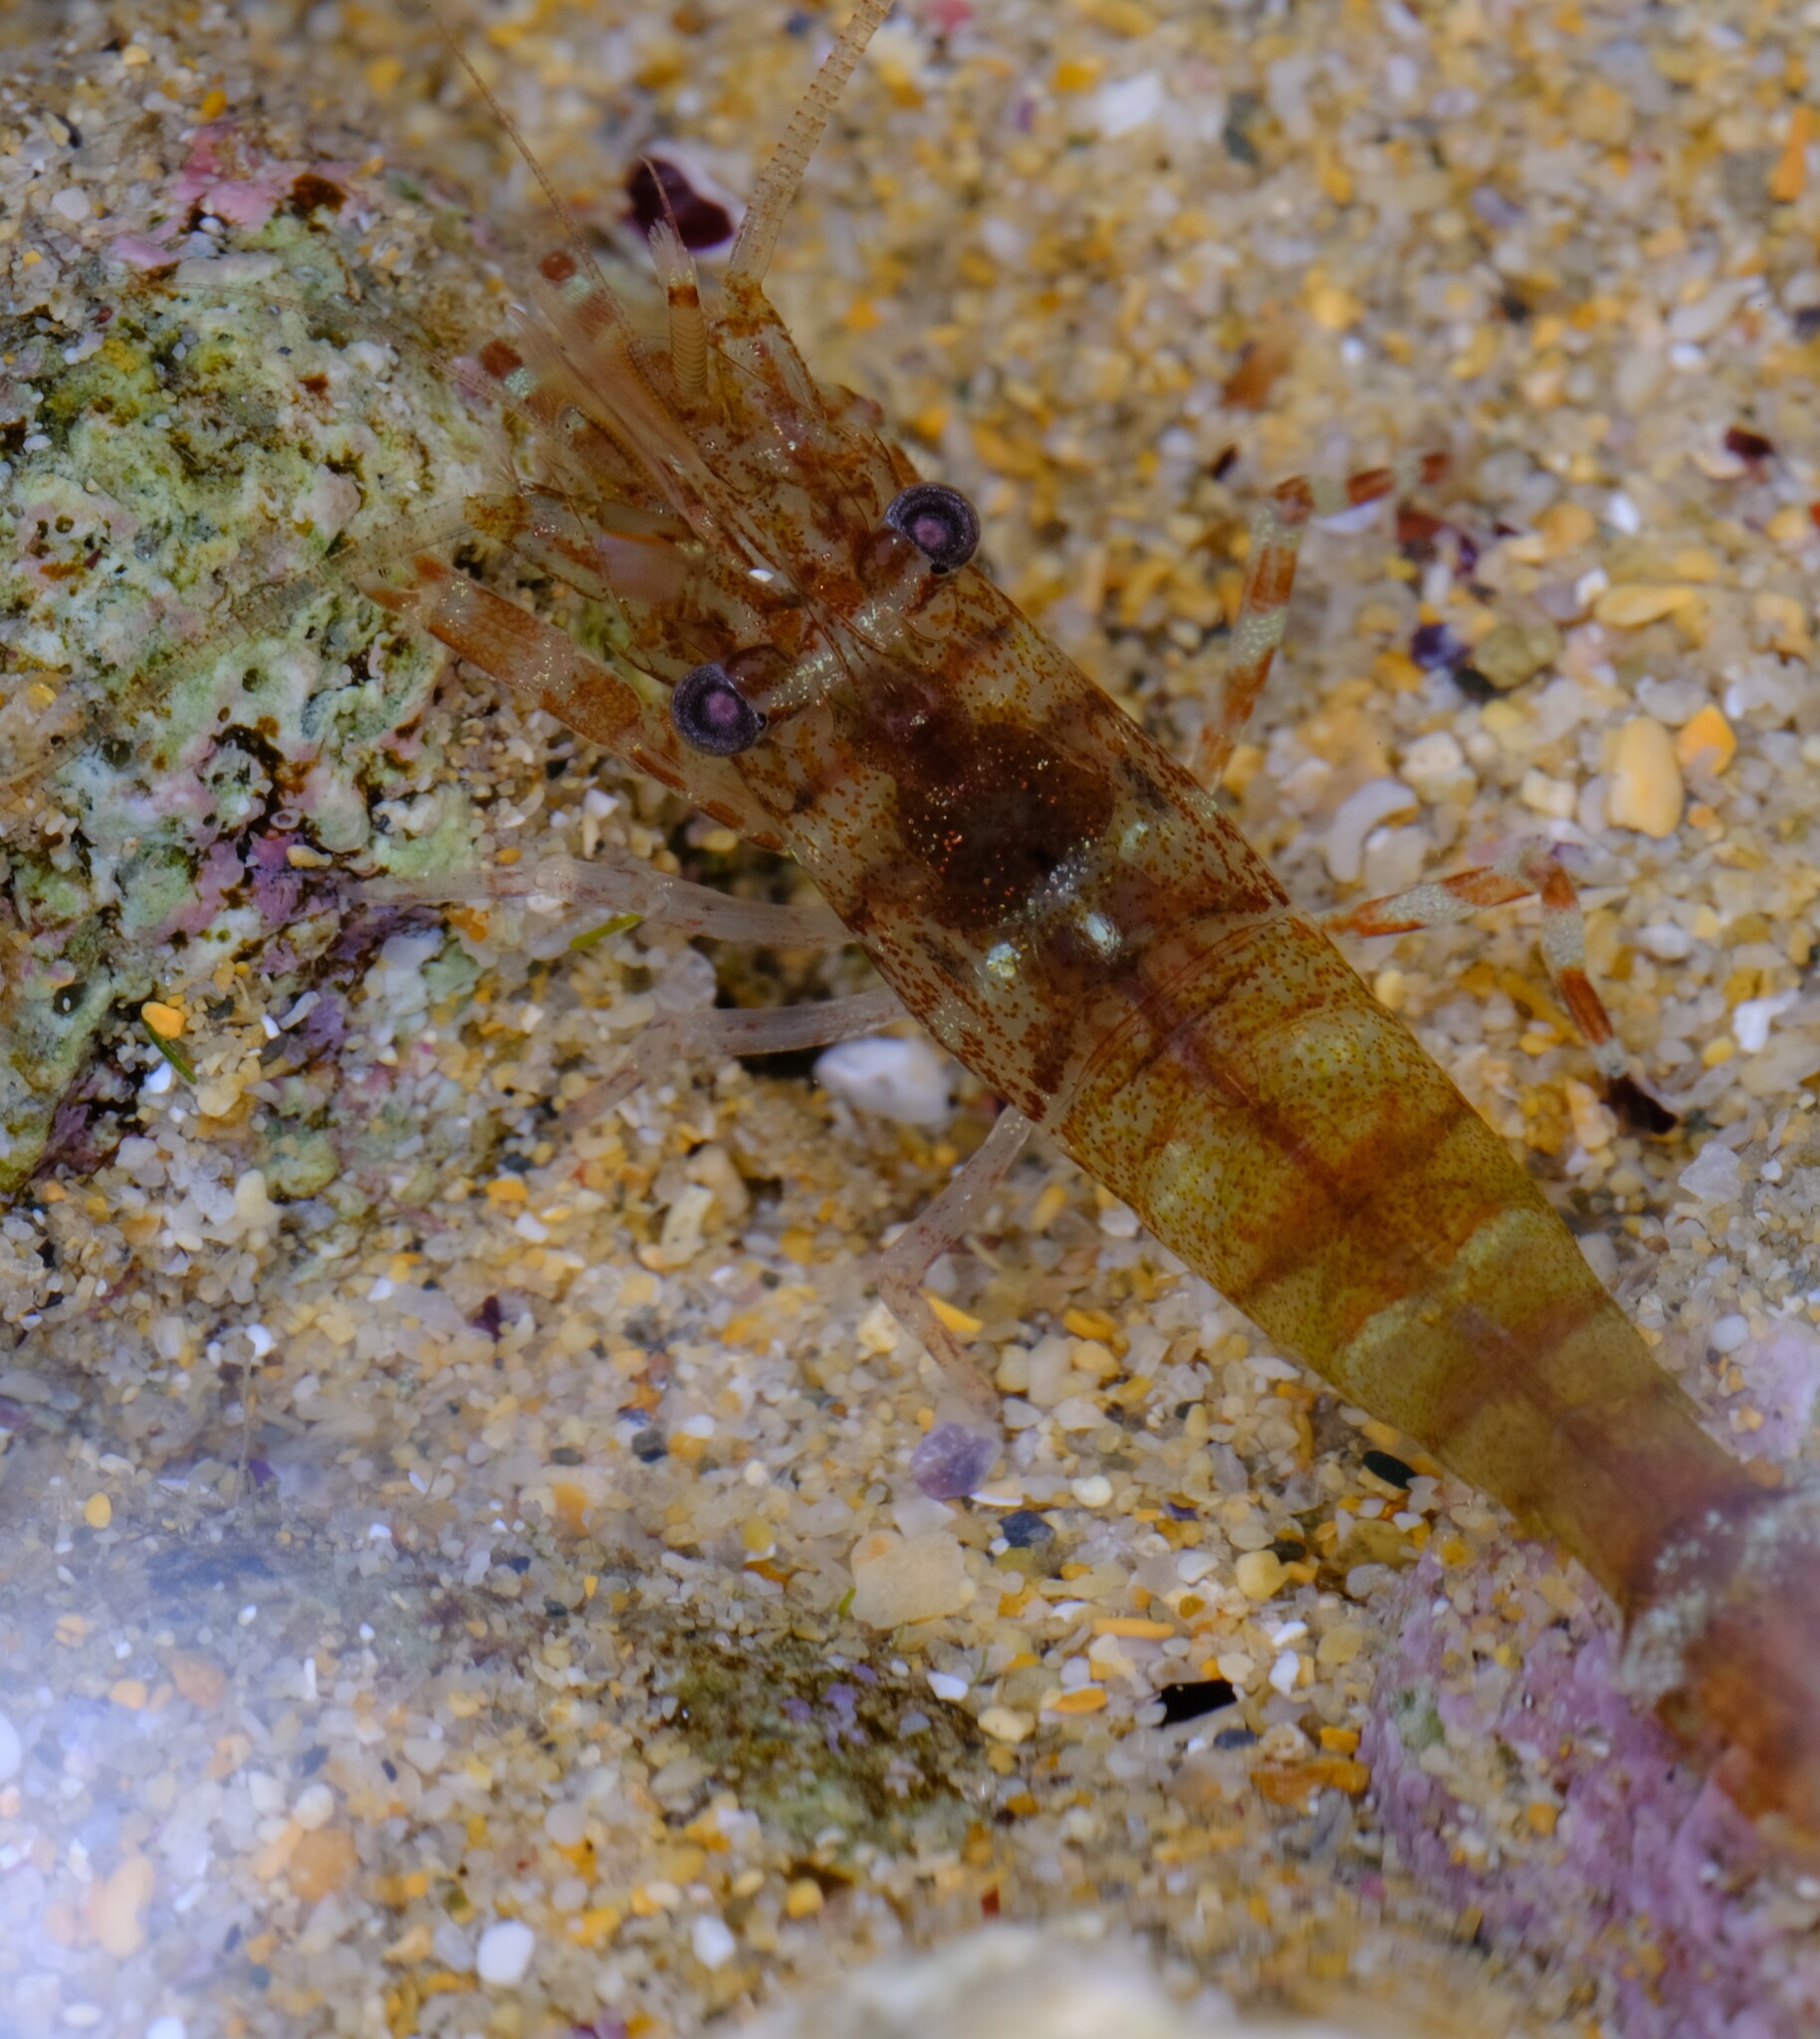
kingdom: Animalia
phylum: Arthropoda
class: Malacostraca
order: Decapoda
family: Hippolytidae
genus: Alope
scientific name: Alope orientalis
